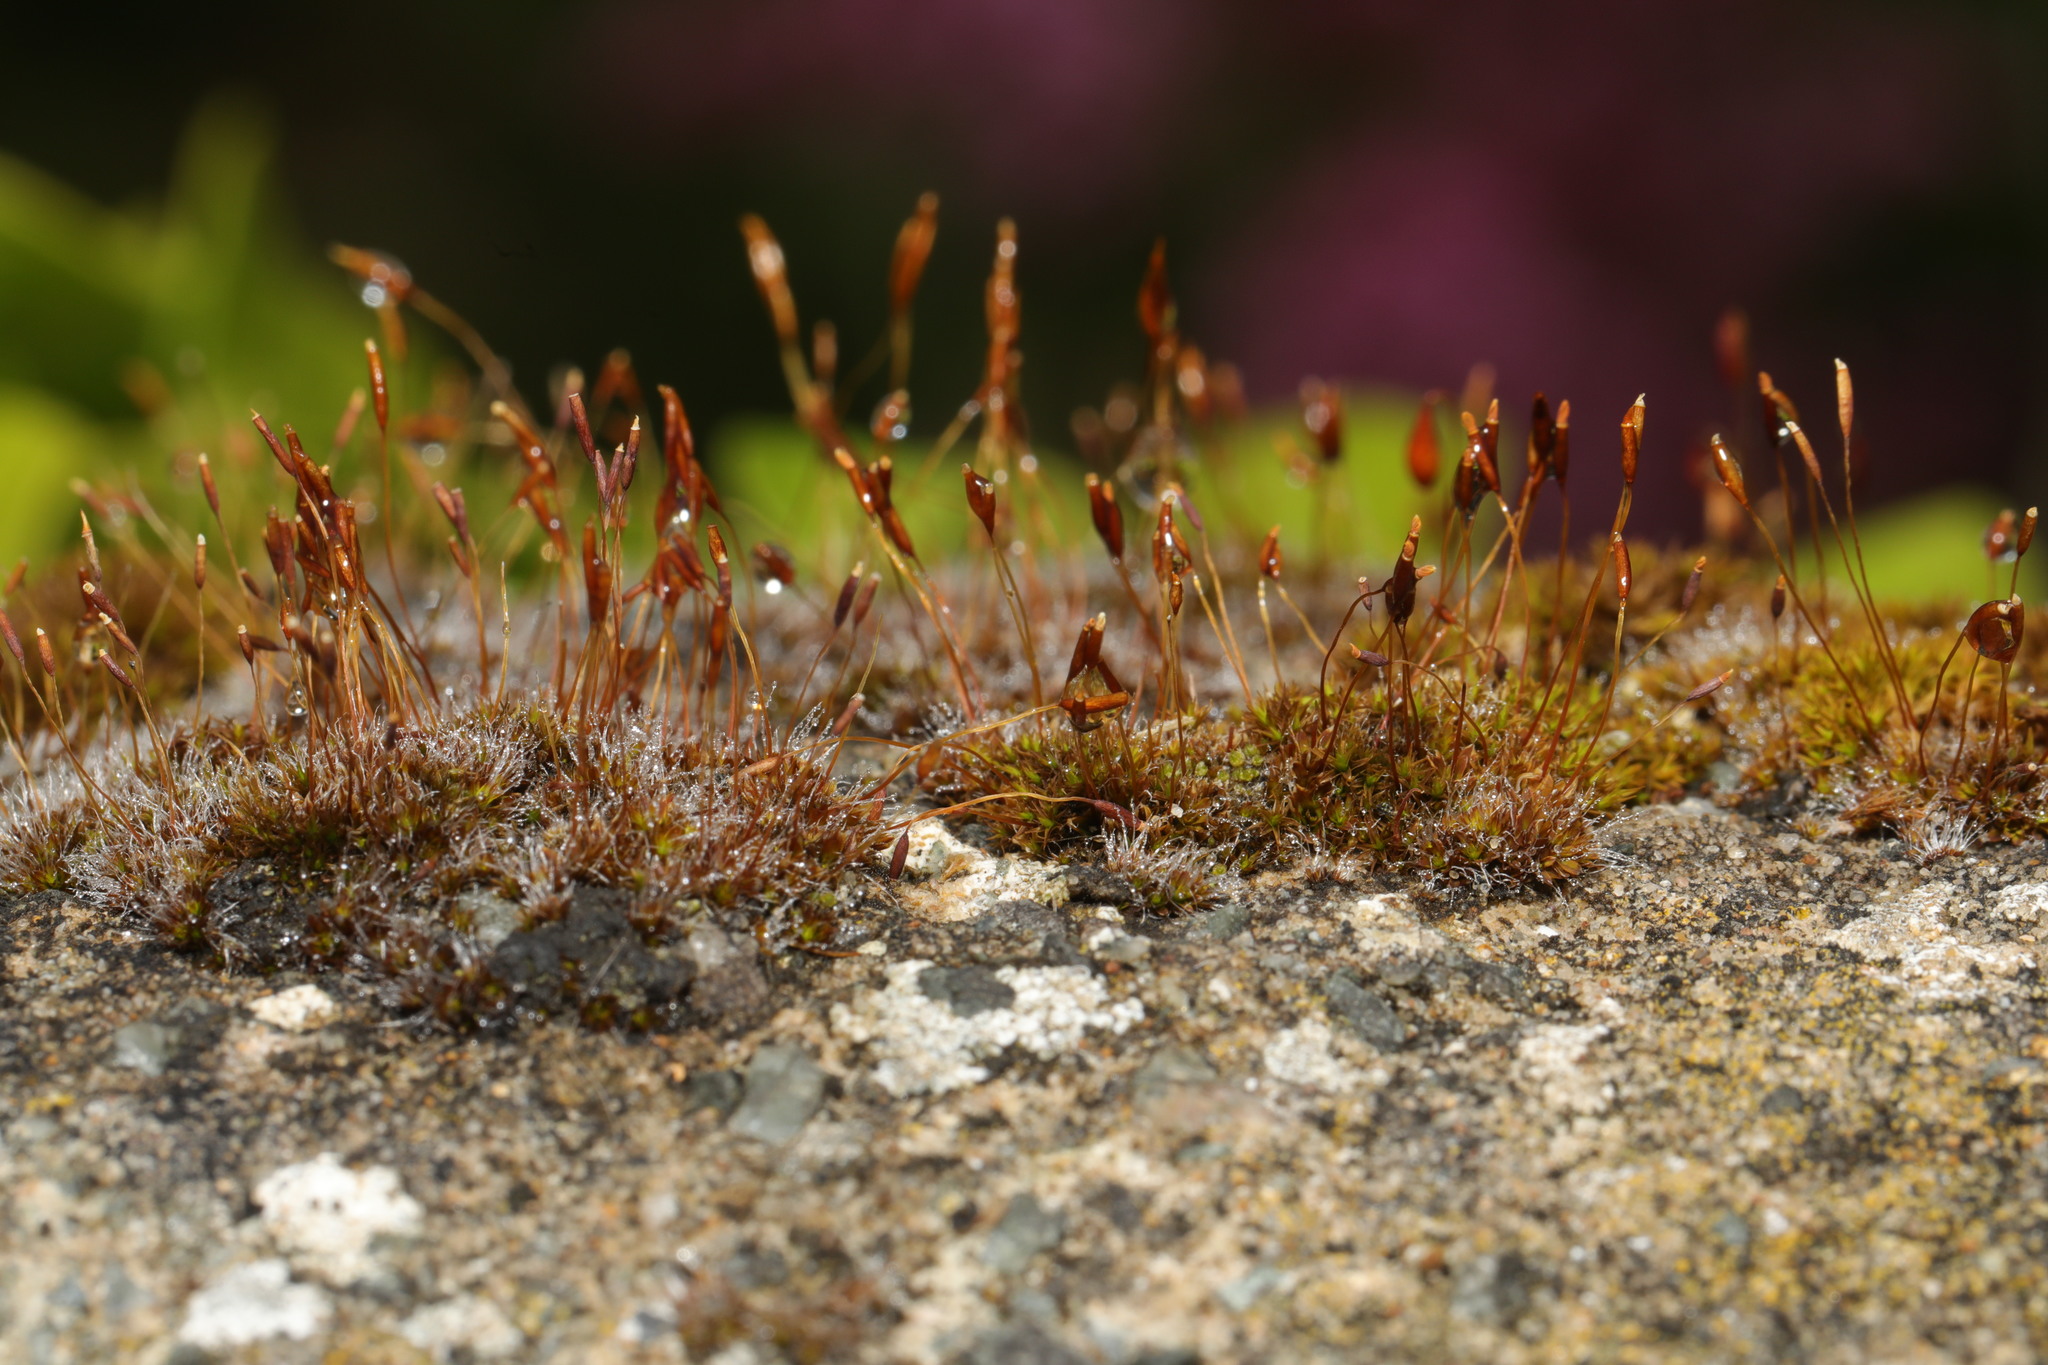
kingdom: Plantae
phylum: Bryophyta
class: Bryopsida
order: Pottiales
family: Pottiaceae
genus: Tortula
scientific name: Tortula muralis
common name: Wall screw-moss
